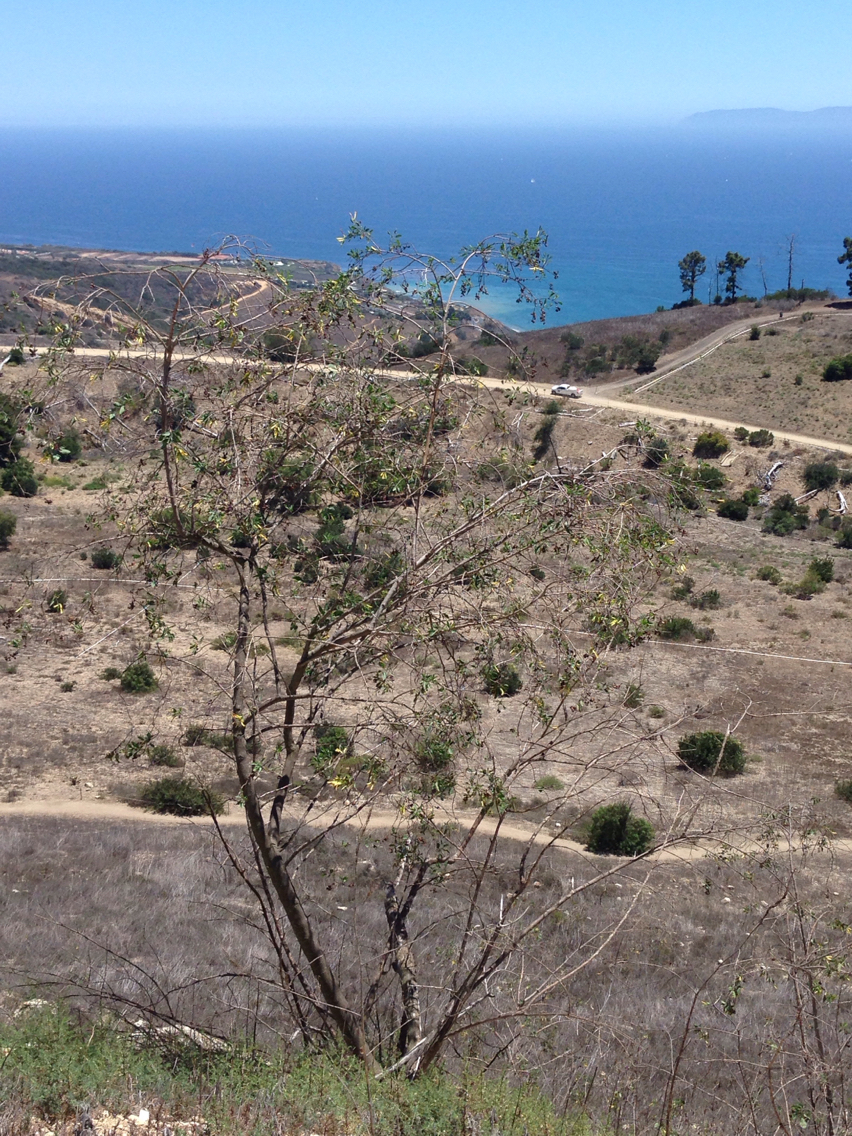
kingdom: Plantae
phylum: Tracheophyta
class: Magnoliopsida
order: Solanales
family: Solanaceae
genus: Nicotiana
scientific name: Nicotiana glauca
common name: Tree tobacco
